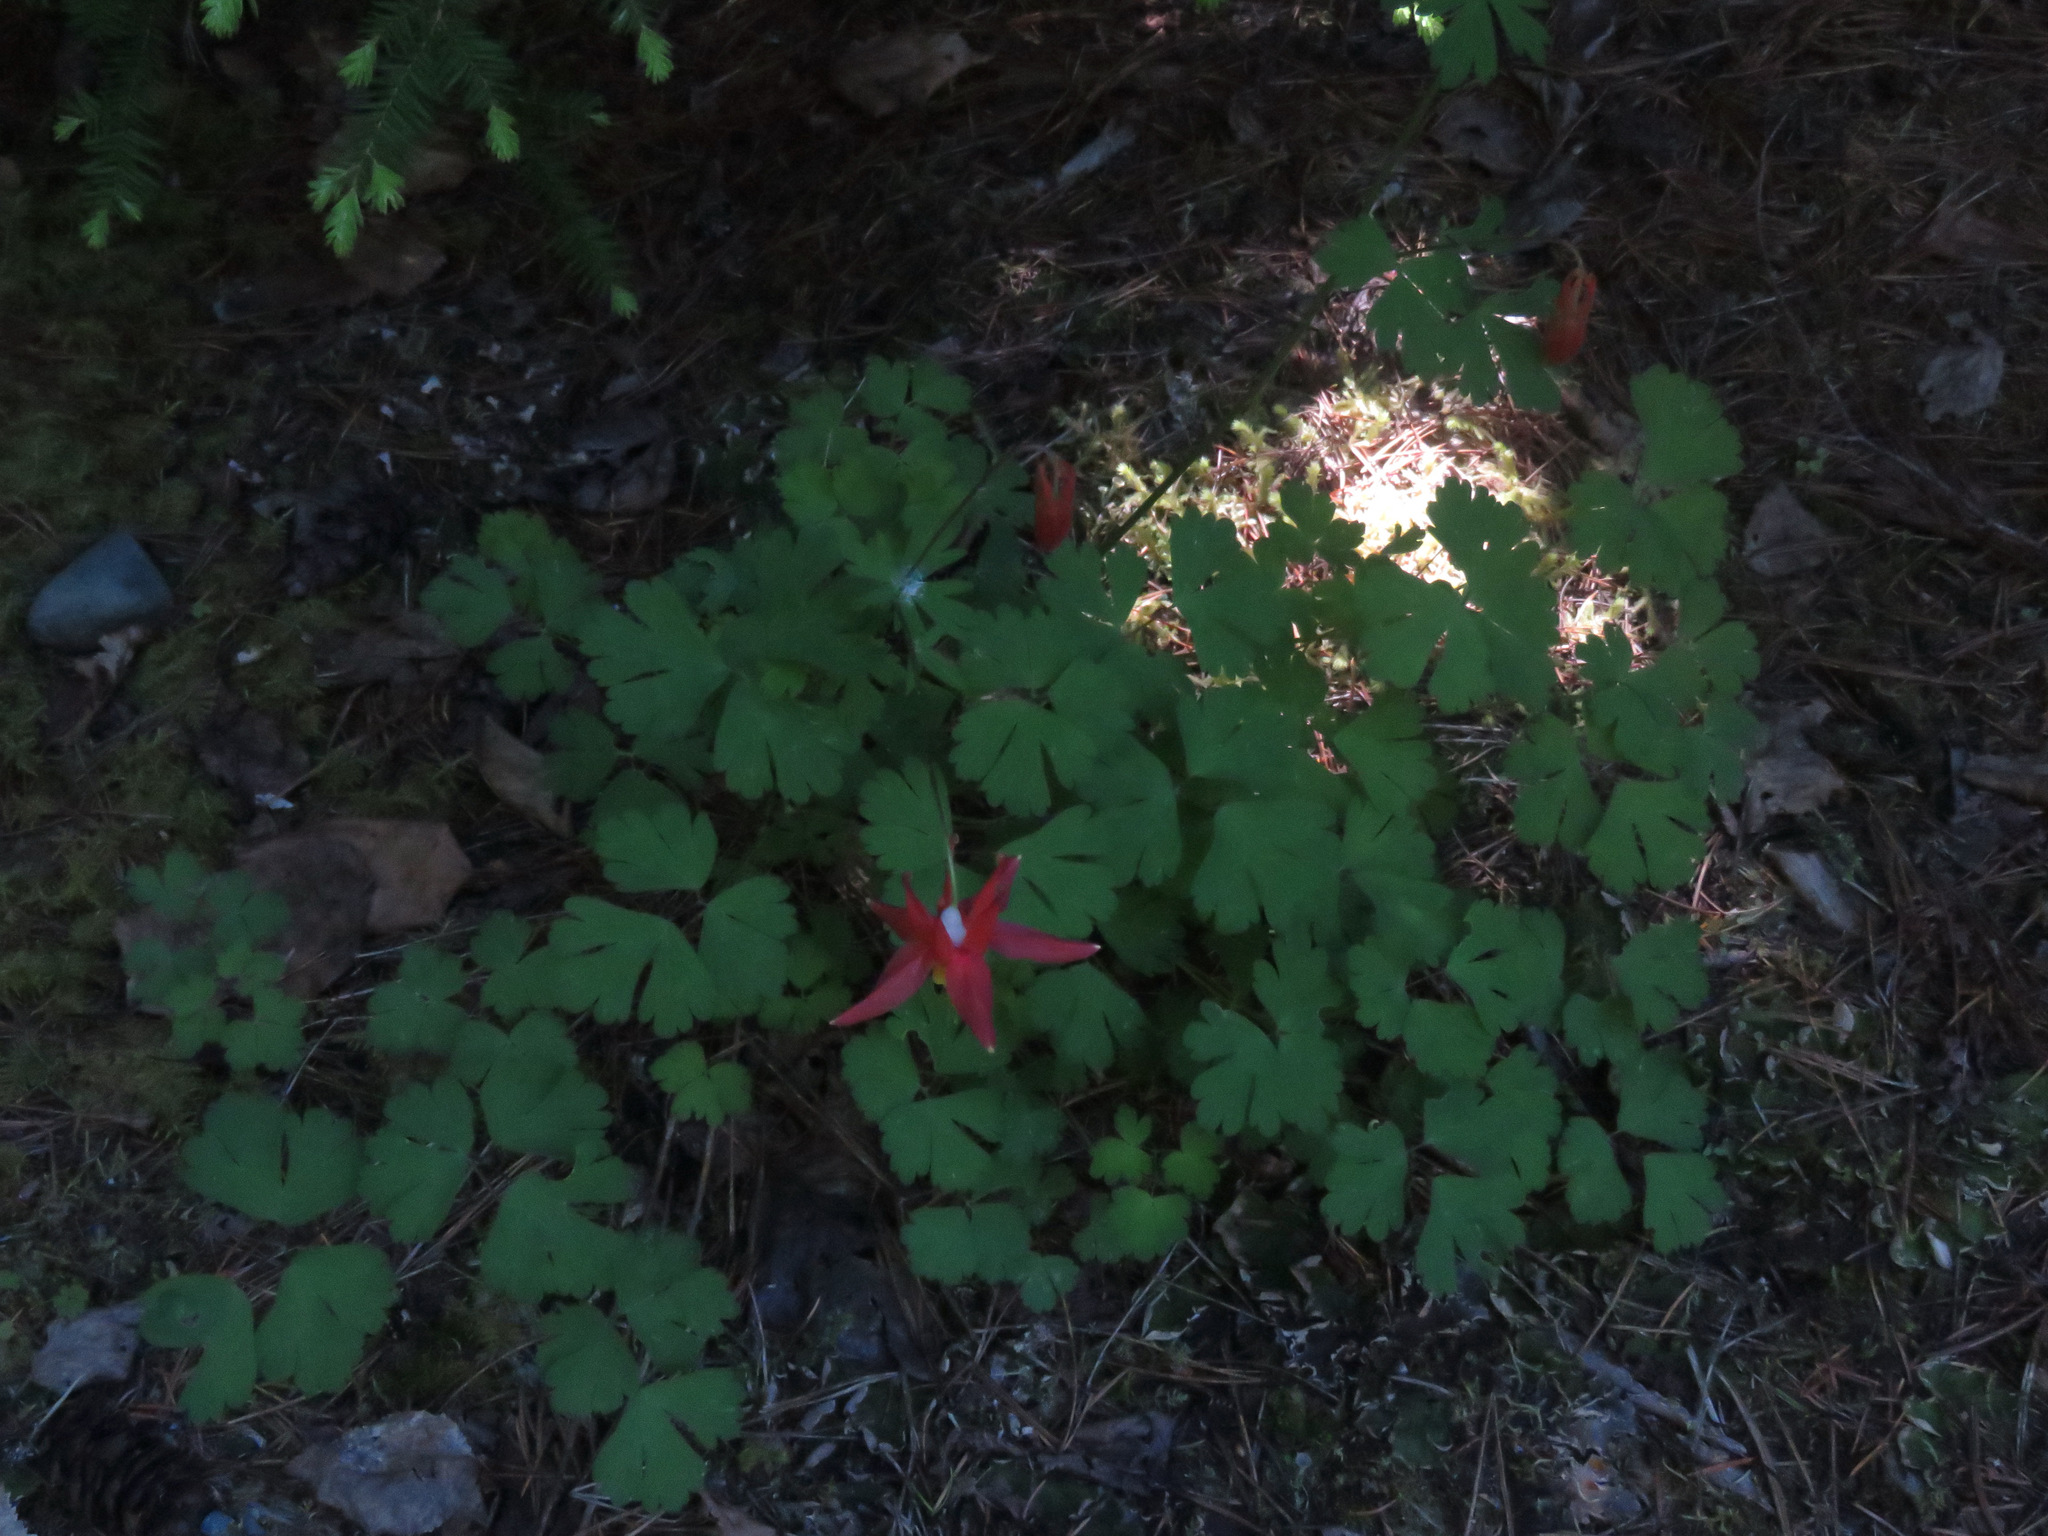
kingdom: Plantae
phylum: Tracheophyta
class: Magnoliopsida
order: Ranunculales
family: Ranunculaceae
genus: Aquilegia
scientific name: Aquilegia formosa
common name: Sitka columbine
